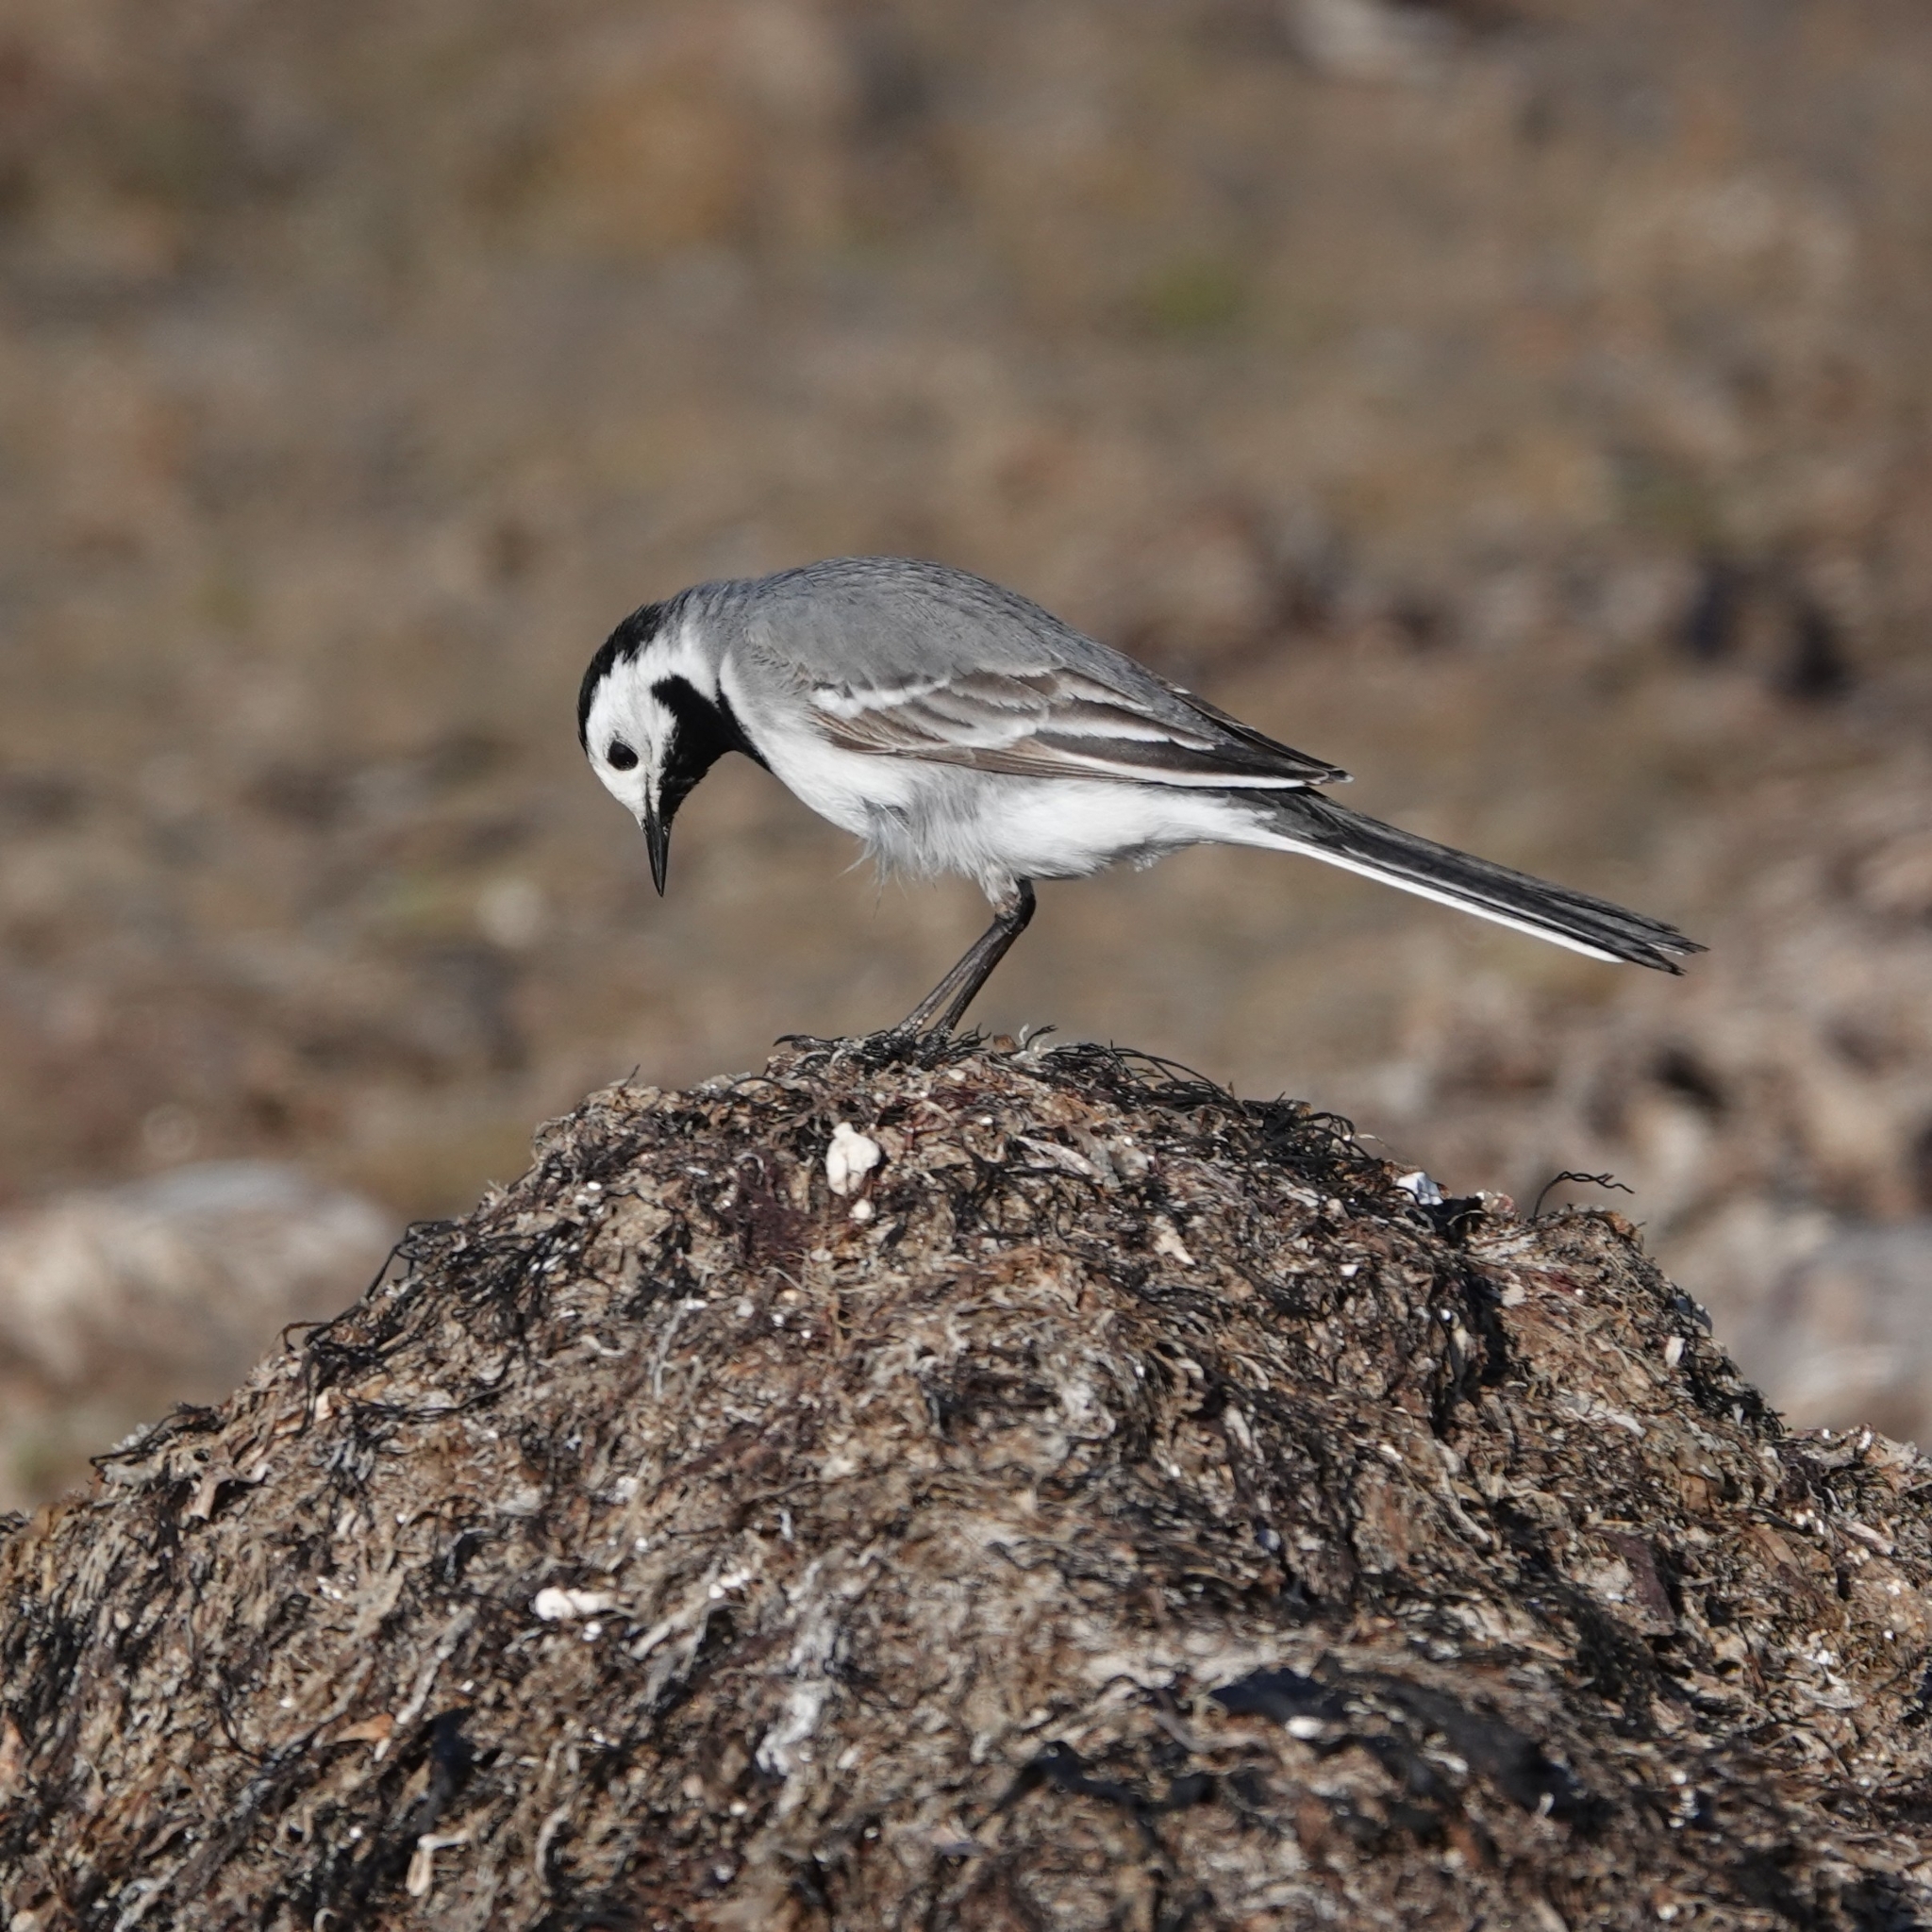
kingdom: Animalia
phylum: Chordata
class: Aves
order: Passeriformes
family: Motacillidae
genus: Motacilla
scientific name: Motacilla alba
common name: White wagtail
